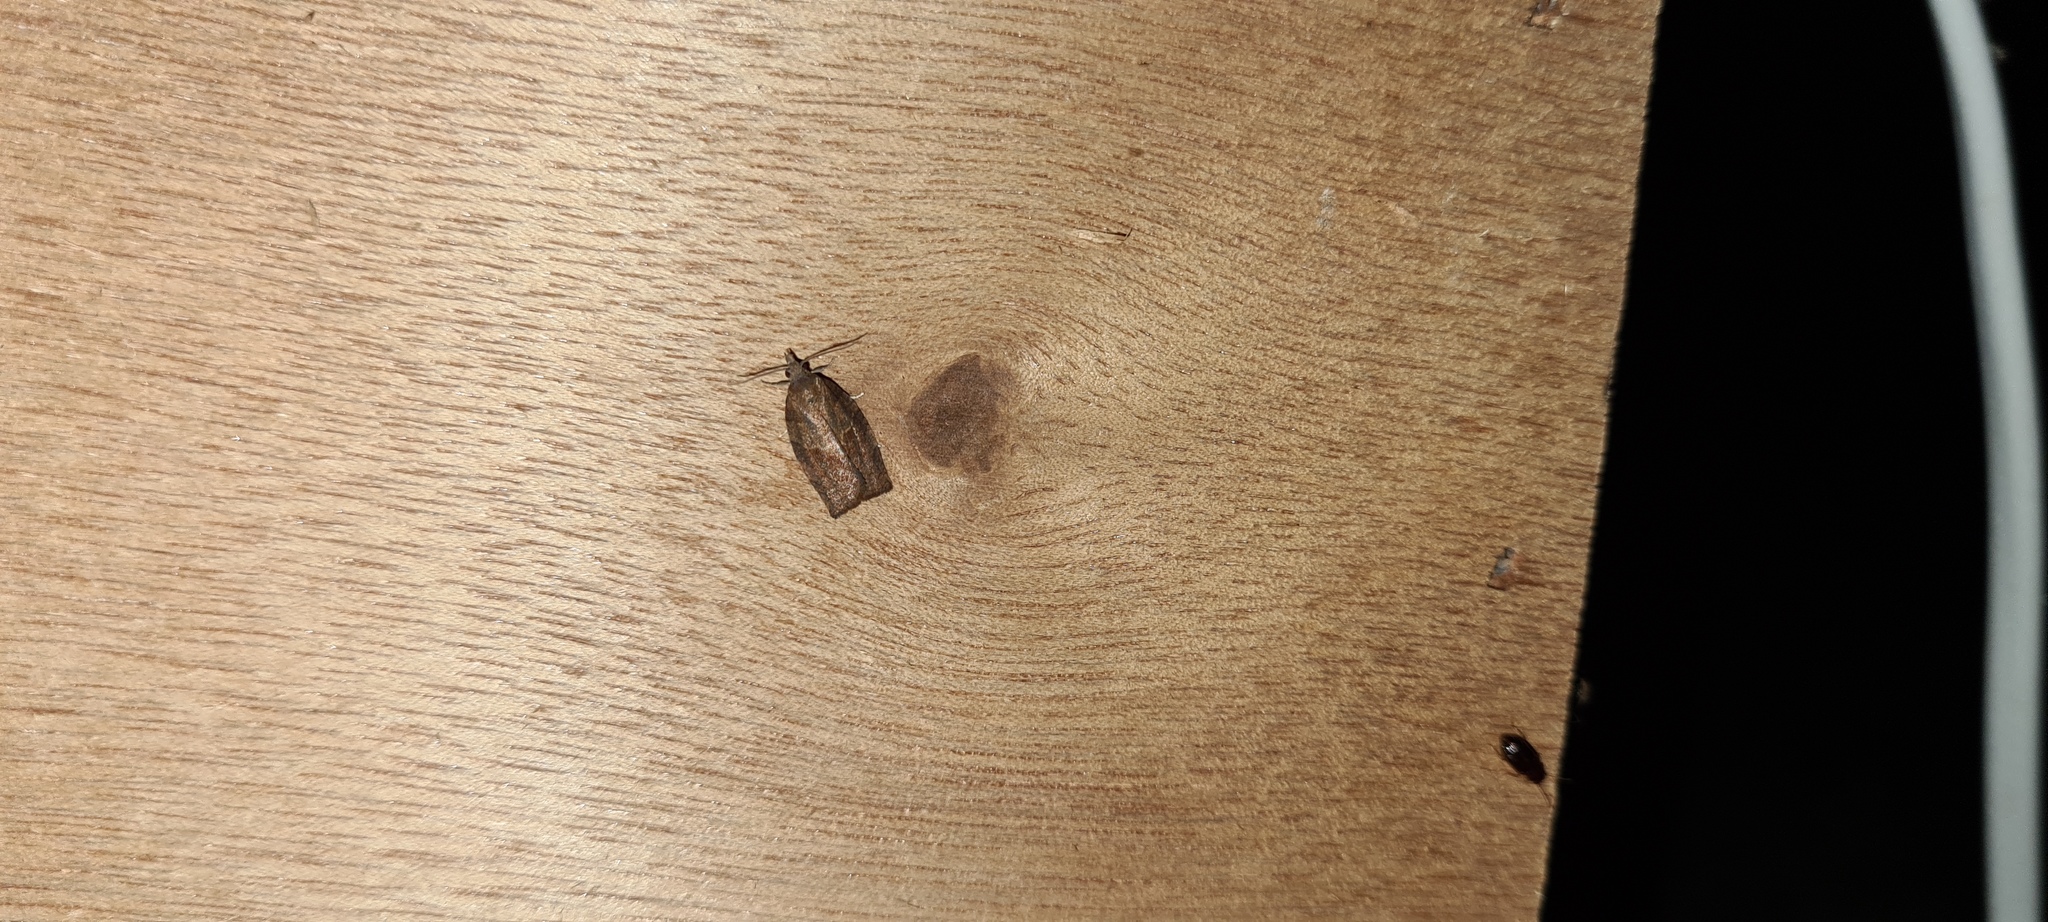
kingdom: Animalia
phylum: Arthropoda
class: Insecta
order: Lepidoptera
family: Tortricidae
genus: Pandemis
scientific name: Pandemis heparana
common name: Dark fruit-tree tortrix
